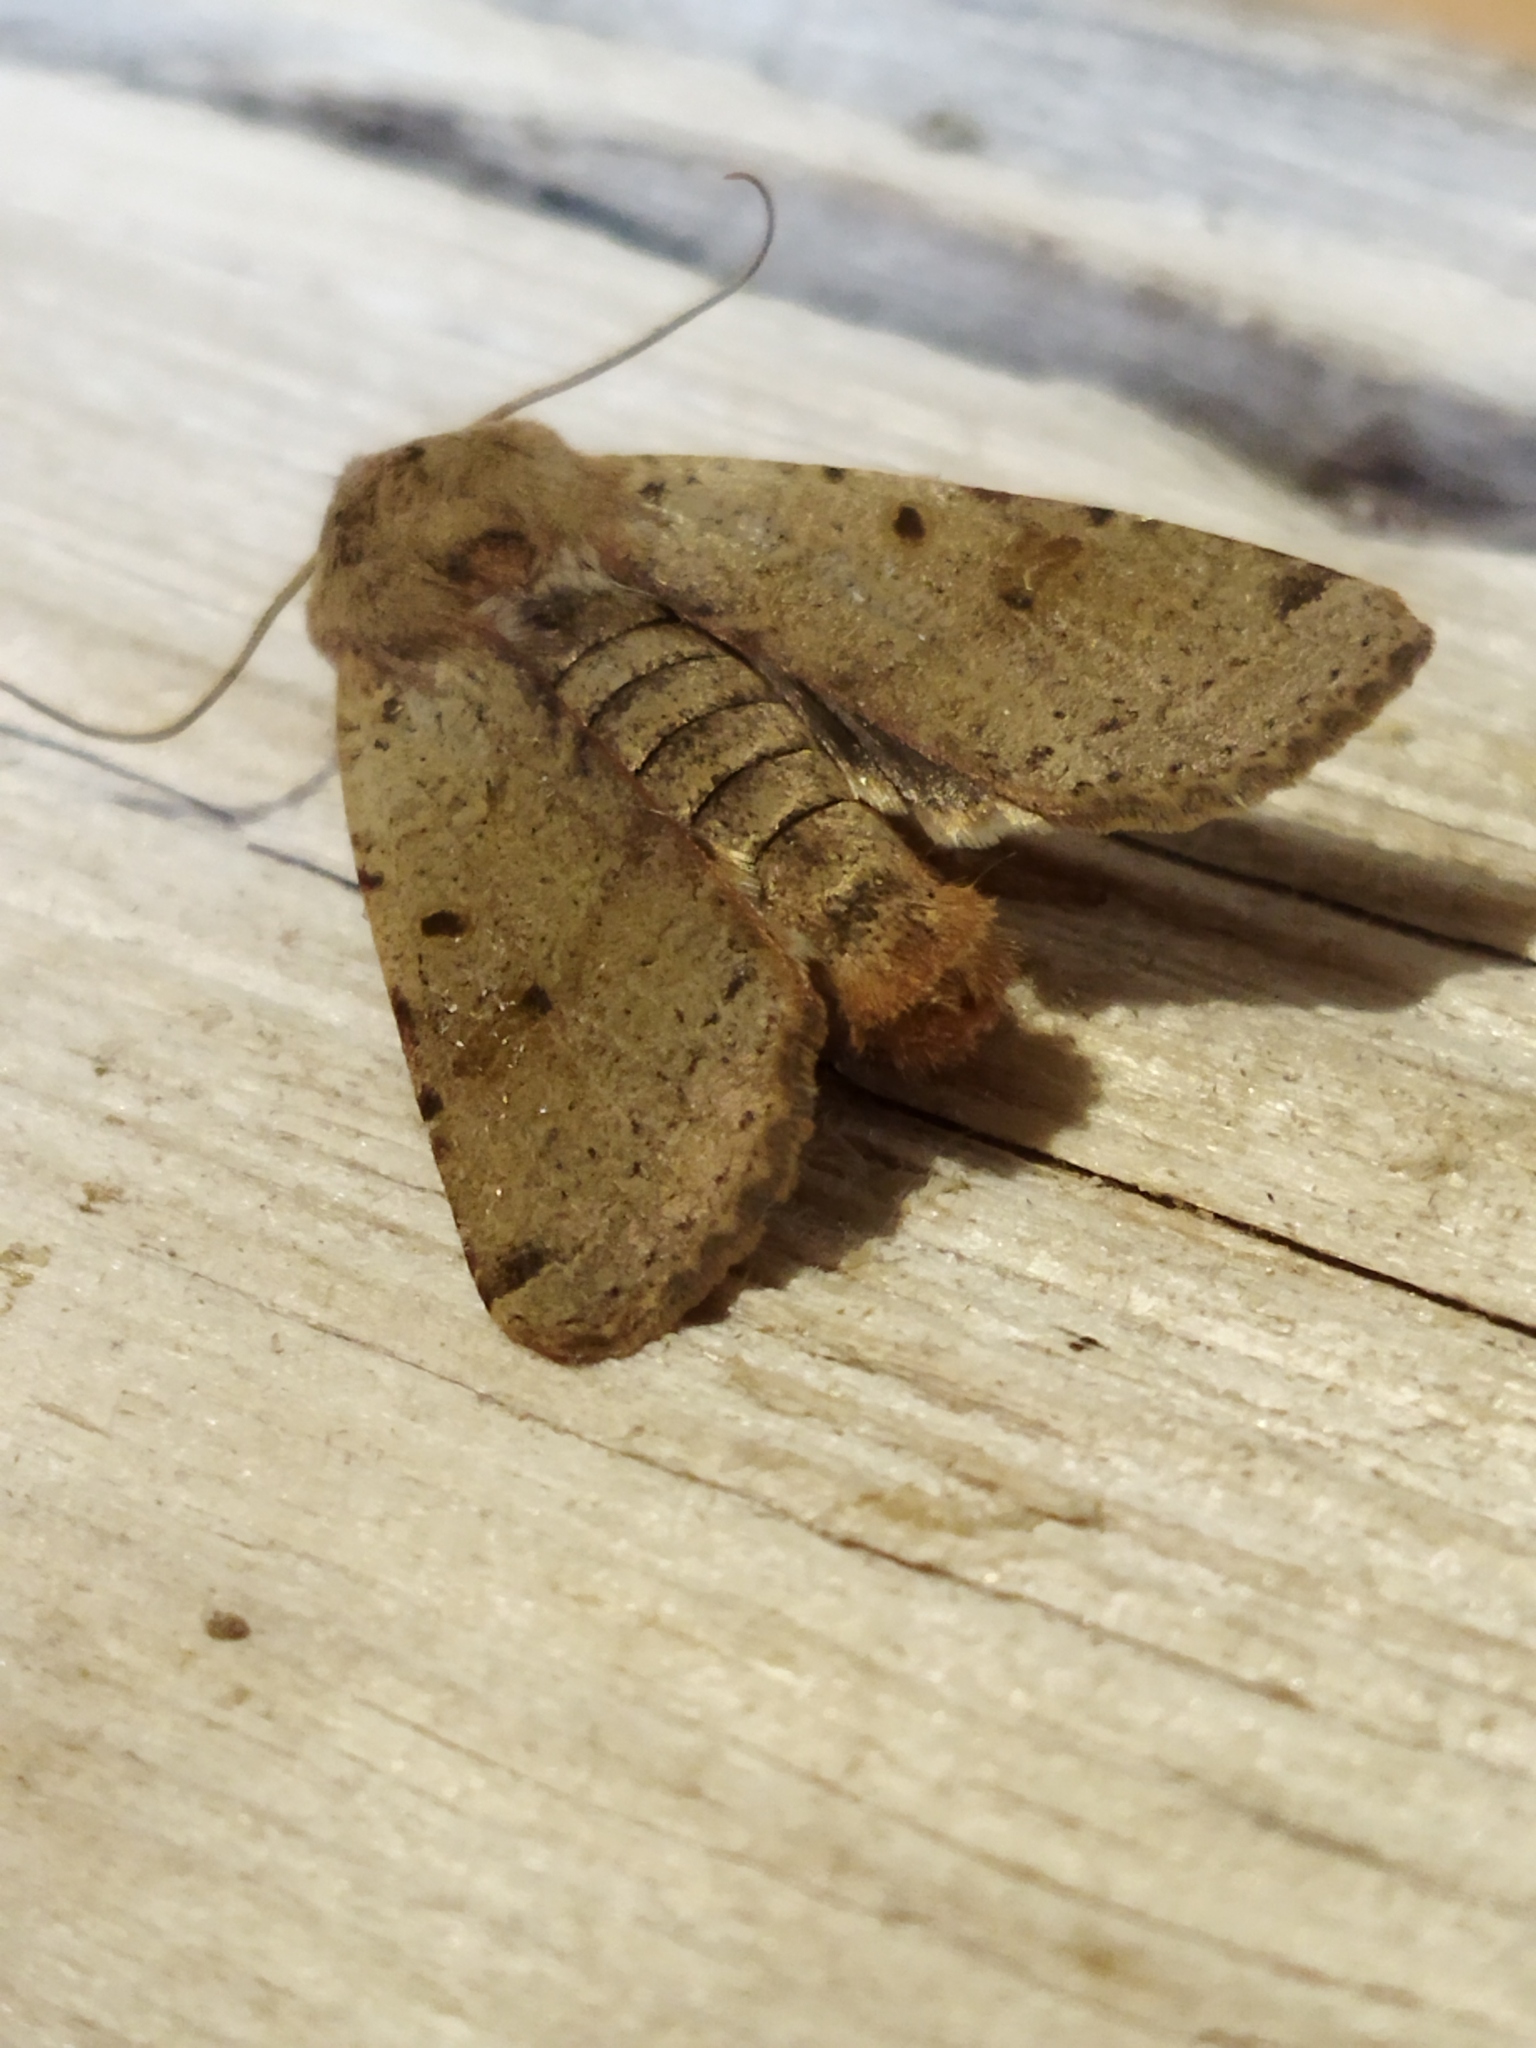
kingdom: Animalia
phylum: Arthropoda
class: Insecta
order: Lepidoptera
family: Noctuidae
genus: Agrochola
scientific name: Agrochola lychnidis
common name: Beaded chestnut
